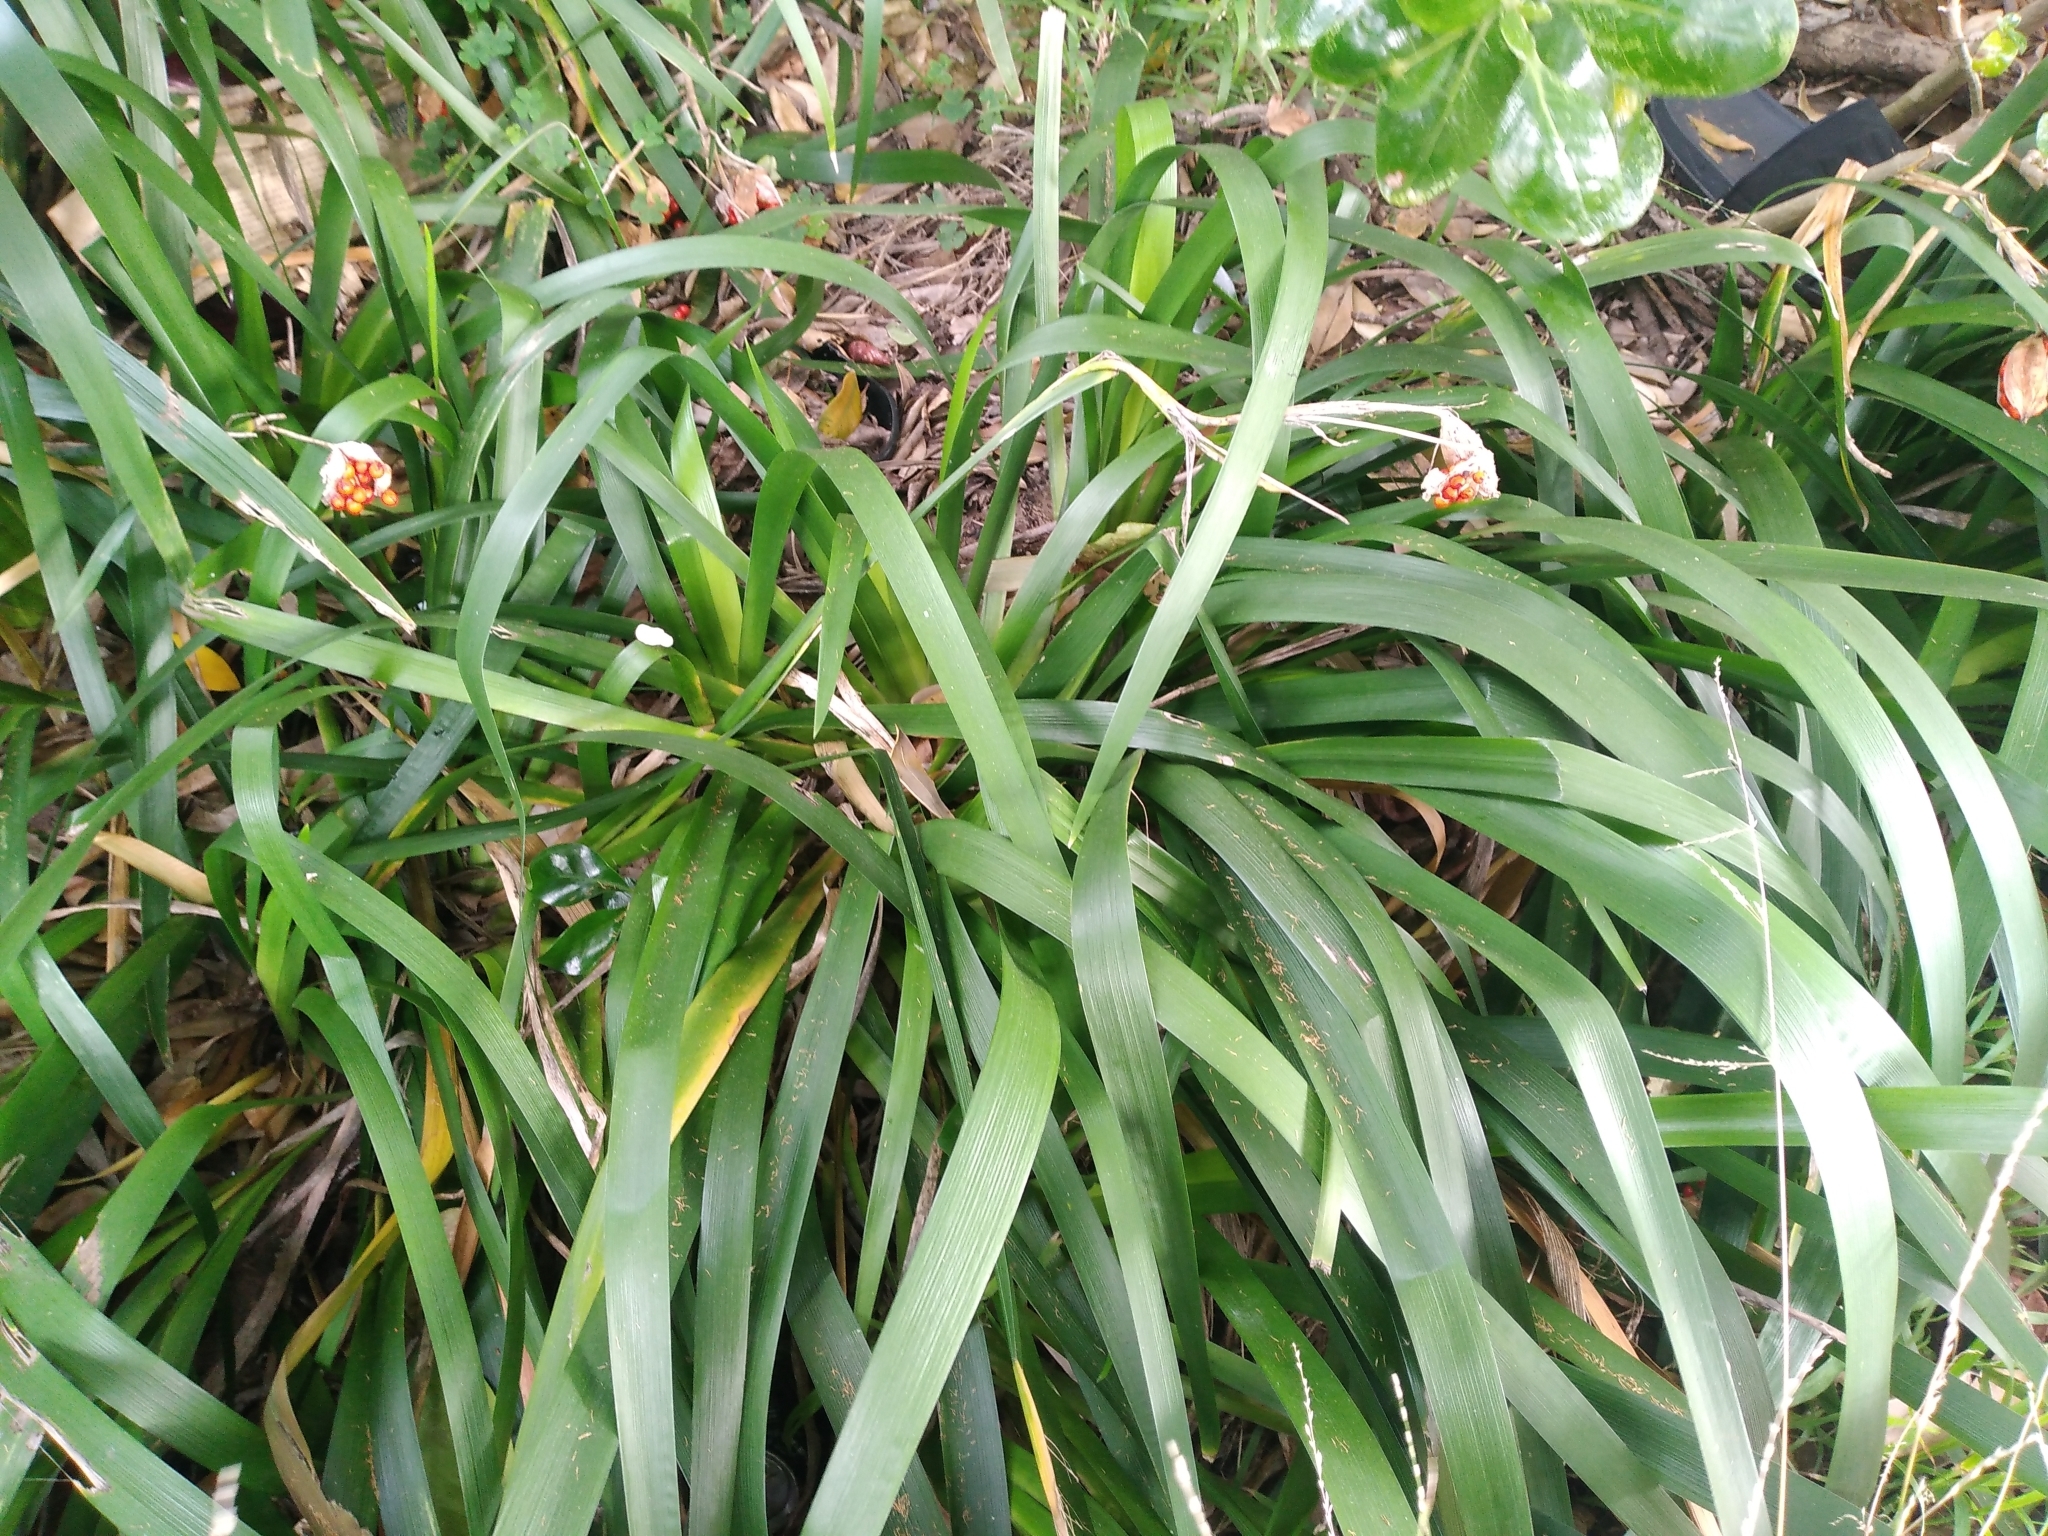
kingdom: Plantae
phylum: Tracheophyta
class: Liliopsida
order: Asparagales
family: Iridaceae
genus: Iris
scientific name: Iris foetidissima
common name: Stinking iris
